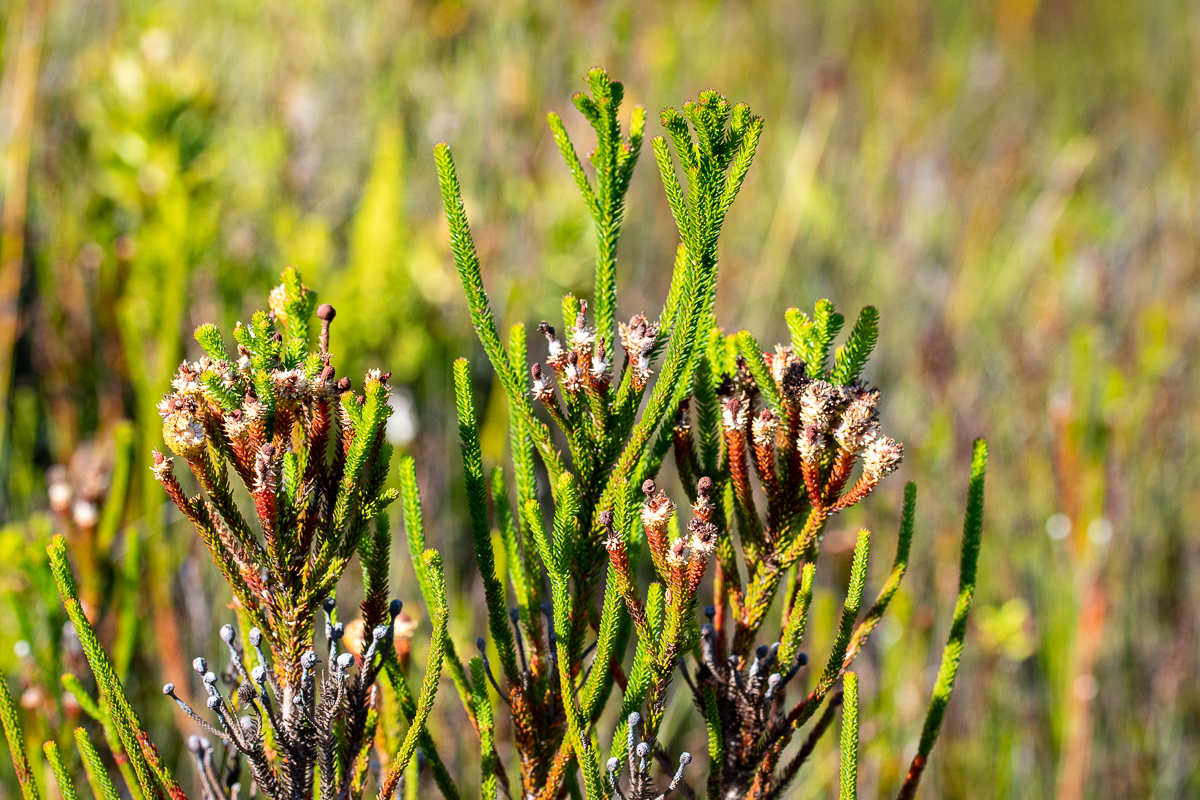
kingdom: Plantae
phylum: Tracheophyta
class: Magnoliopsida
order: Bruniales
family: Bruniaceae
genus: Berzelia
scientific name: Berzelia intermedia
